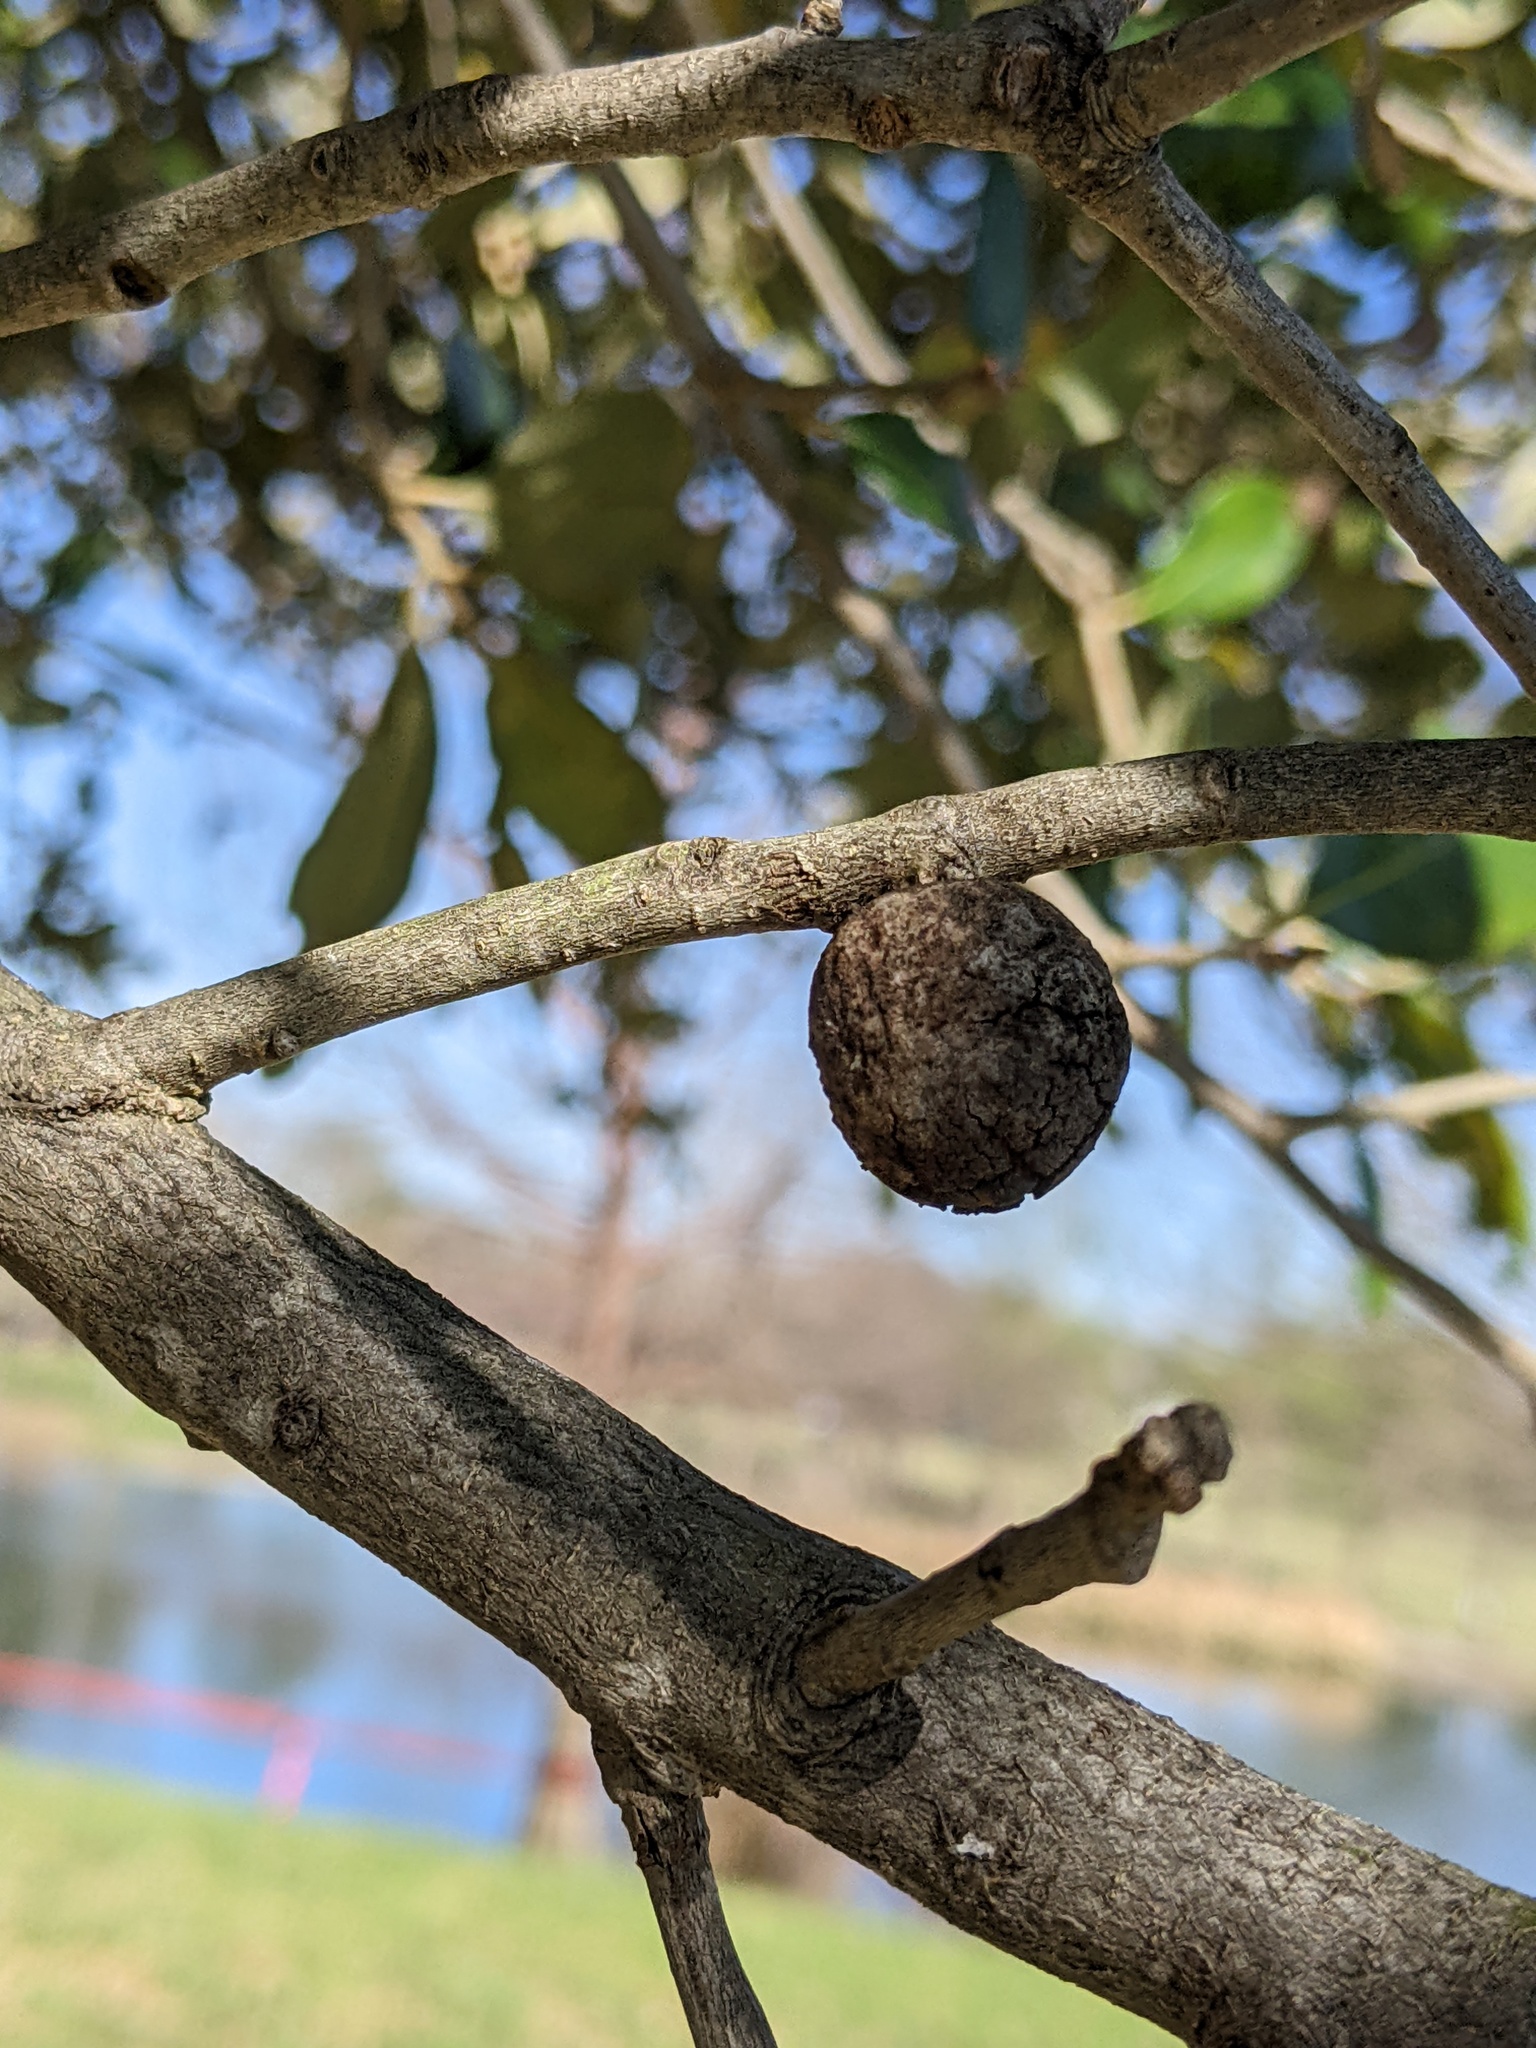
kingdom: Animalia
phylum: Arthropoda
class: Insecta
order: Hymenoptera
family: Cynipidae
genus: Disholcaspis
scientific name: Disholcaspis
